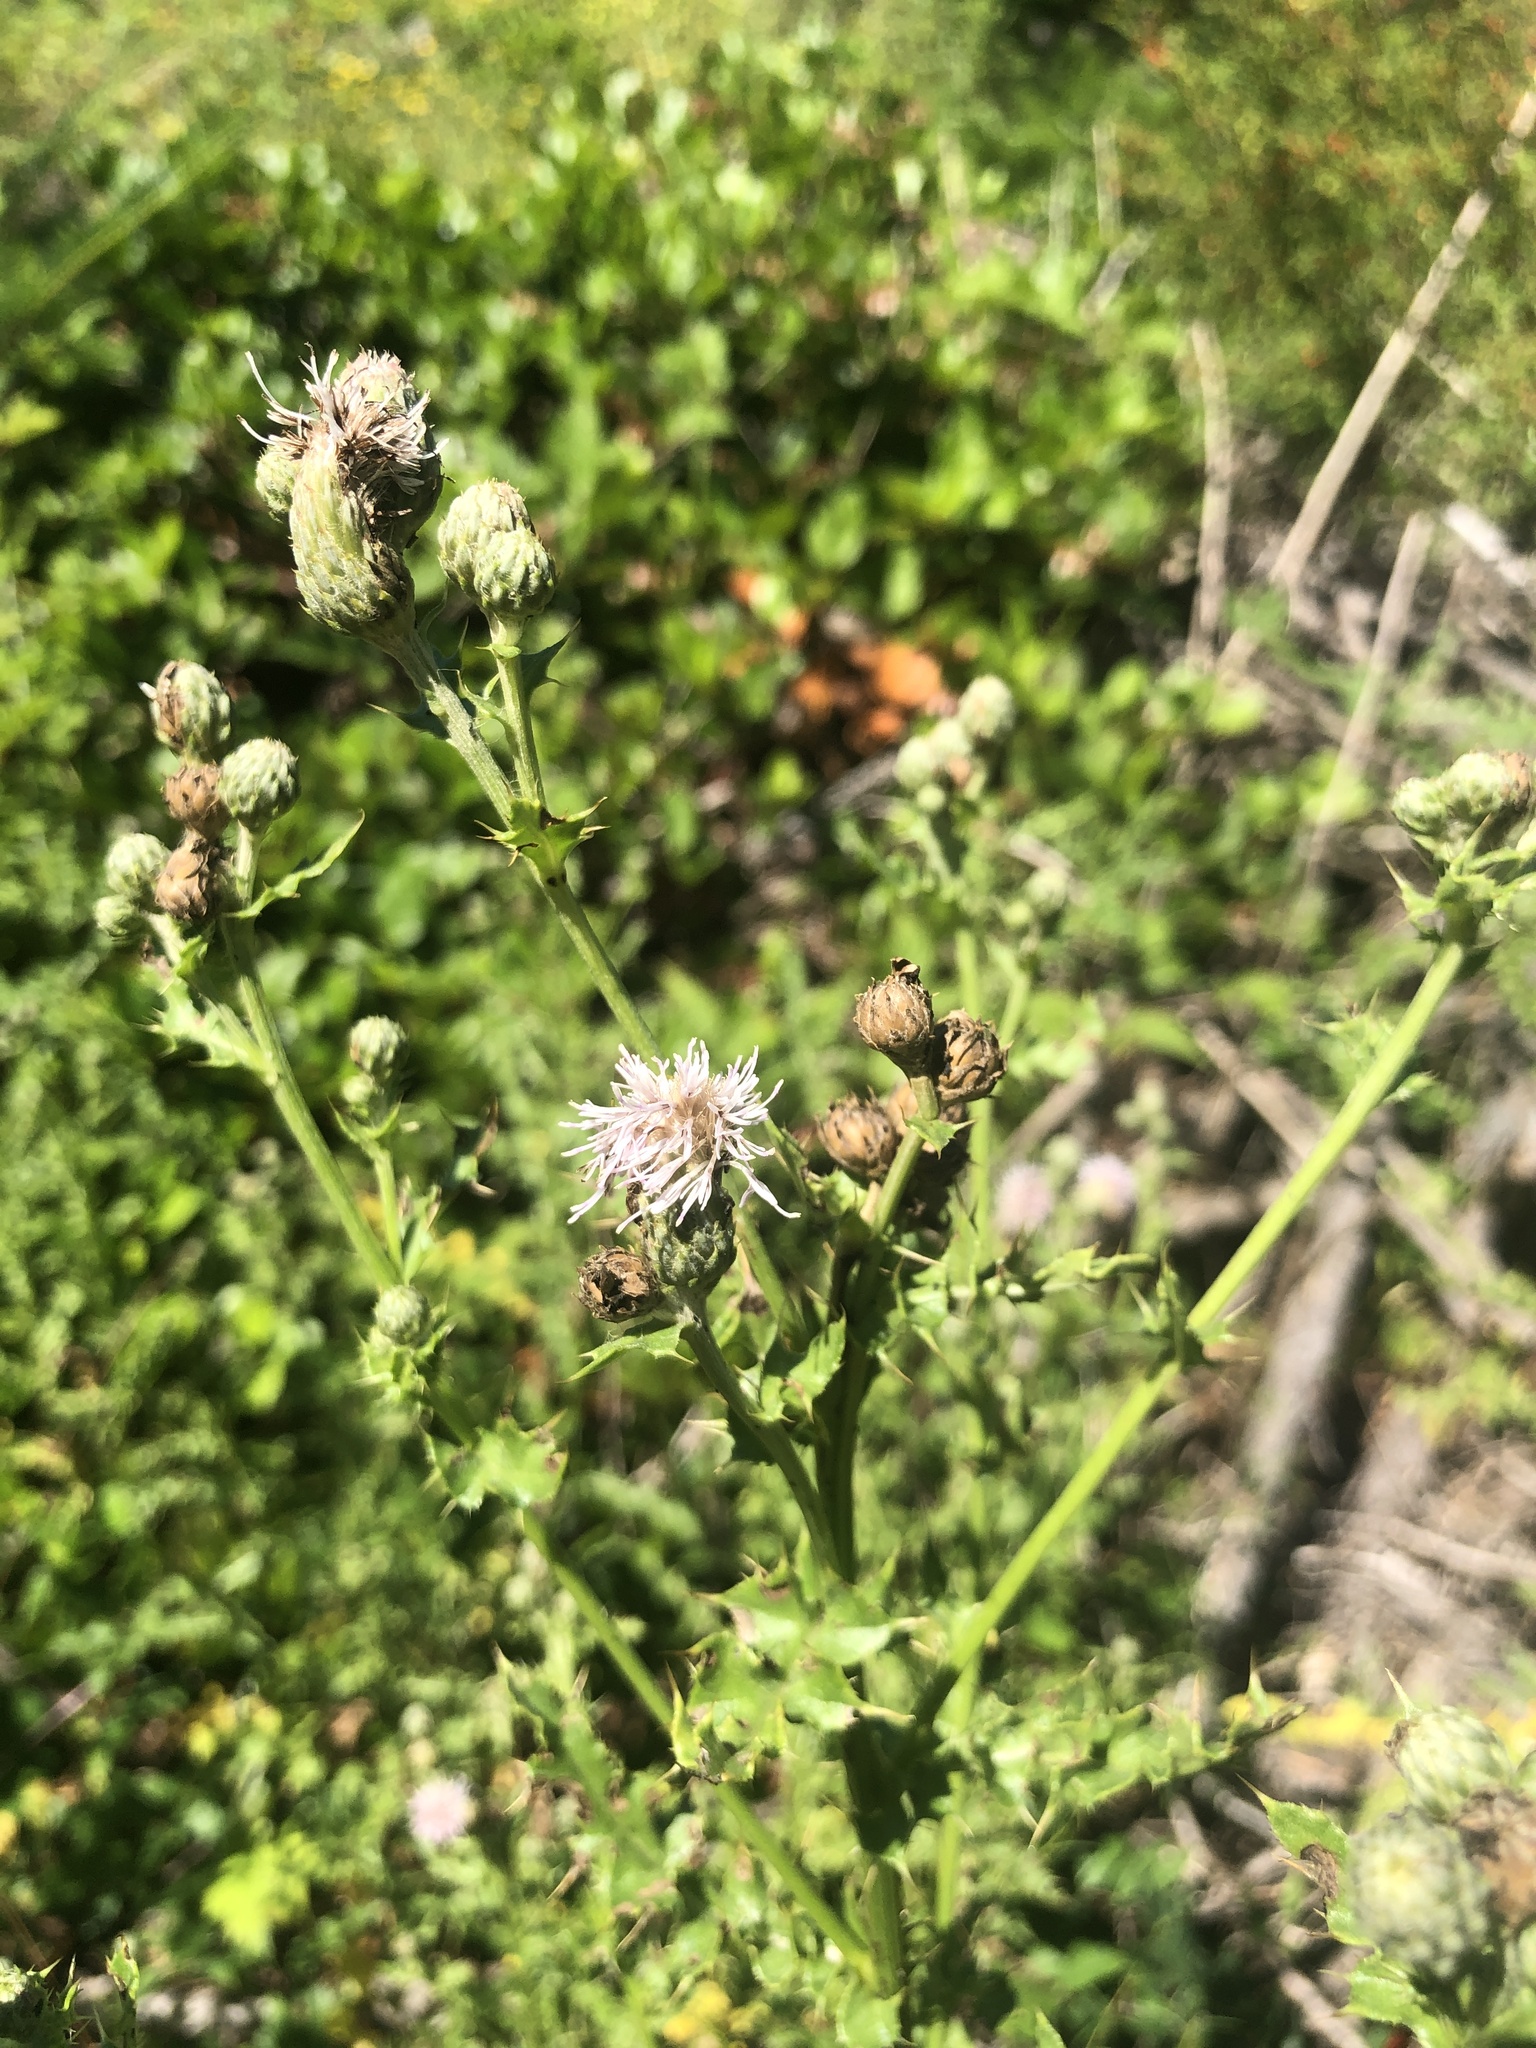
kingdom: Plantae
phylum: Tracheophyta
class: Magnoliopsida
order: Asterales
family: Asteraceae
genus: Cirsium
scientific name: Cirsium arvense
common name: Creeping thistle
